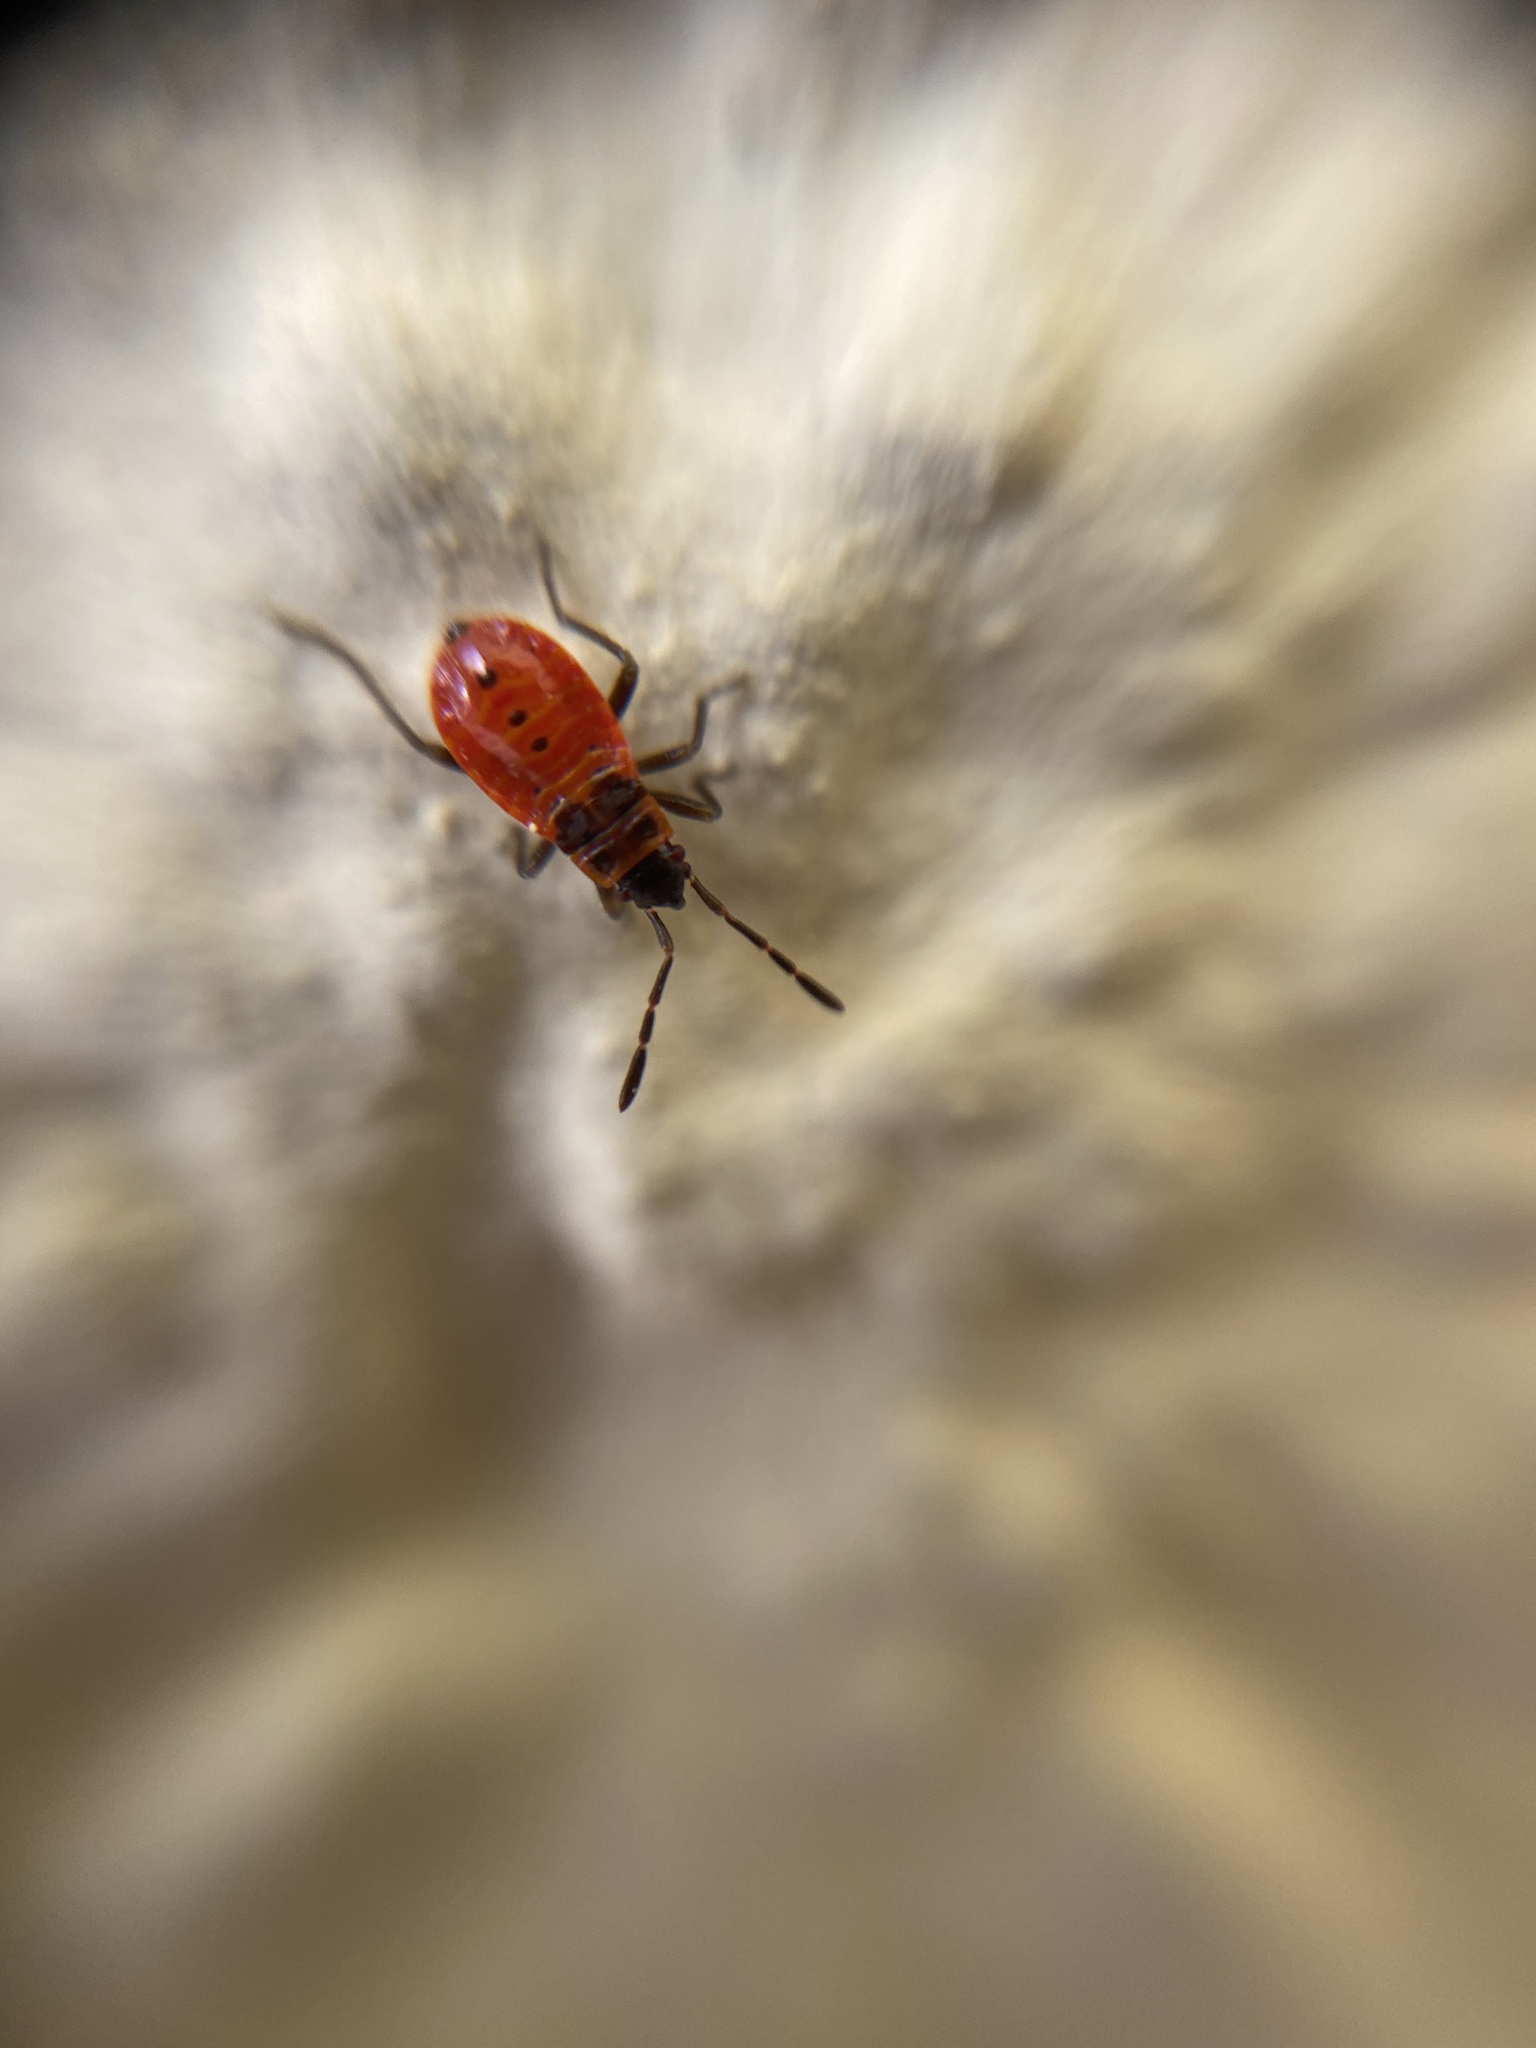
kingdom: Animalia
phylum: Arthropoda
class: Insecta
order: Hemiptera
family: Pyrrhocoridae
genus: Pyrrhocoris
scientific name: Pyrrhocoris apterus
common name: Firebug
